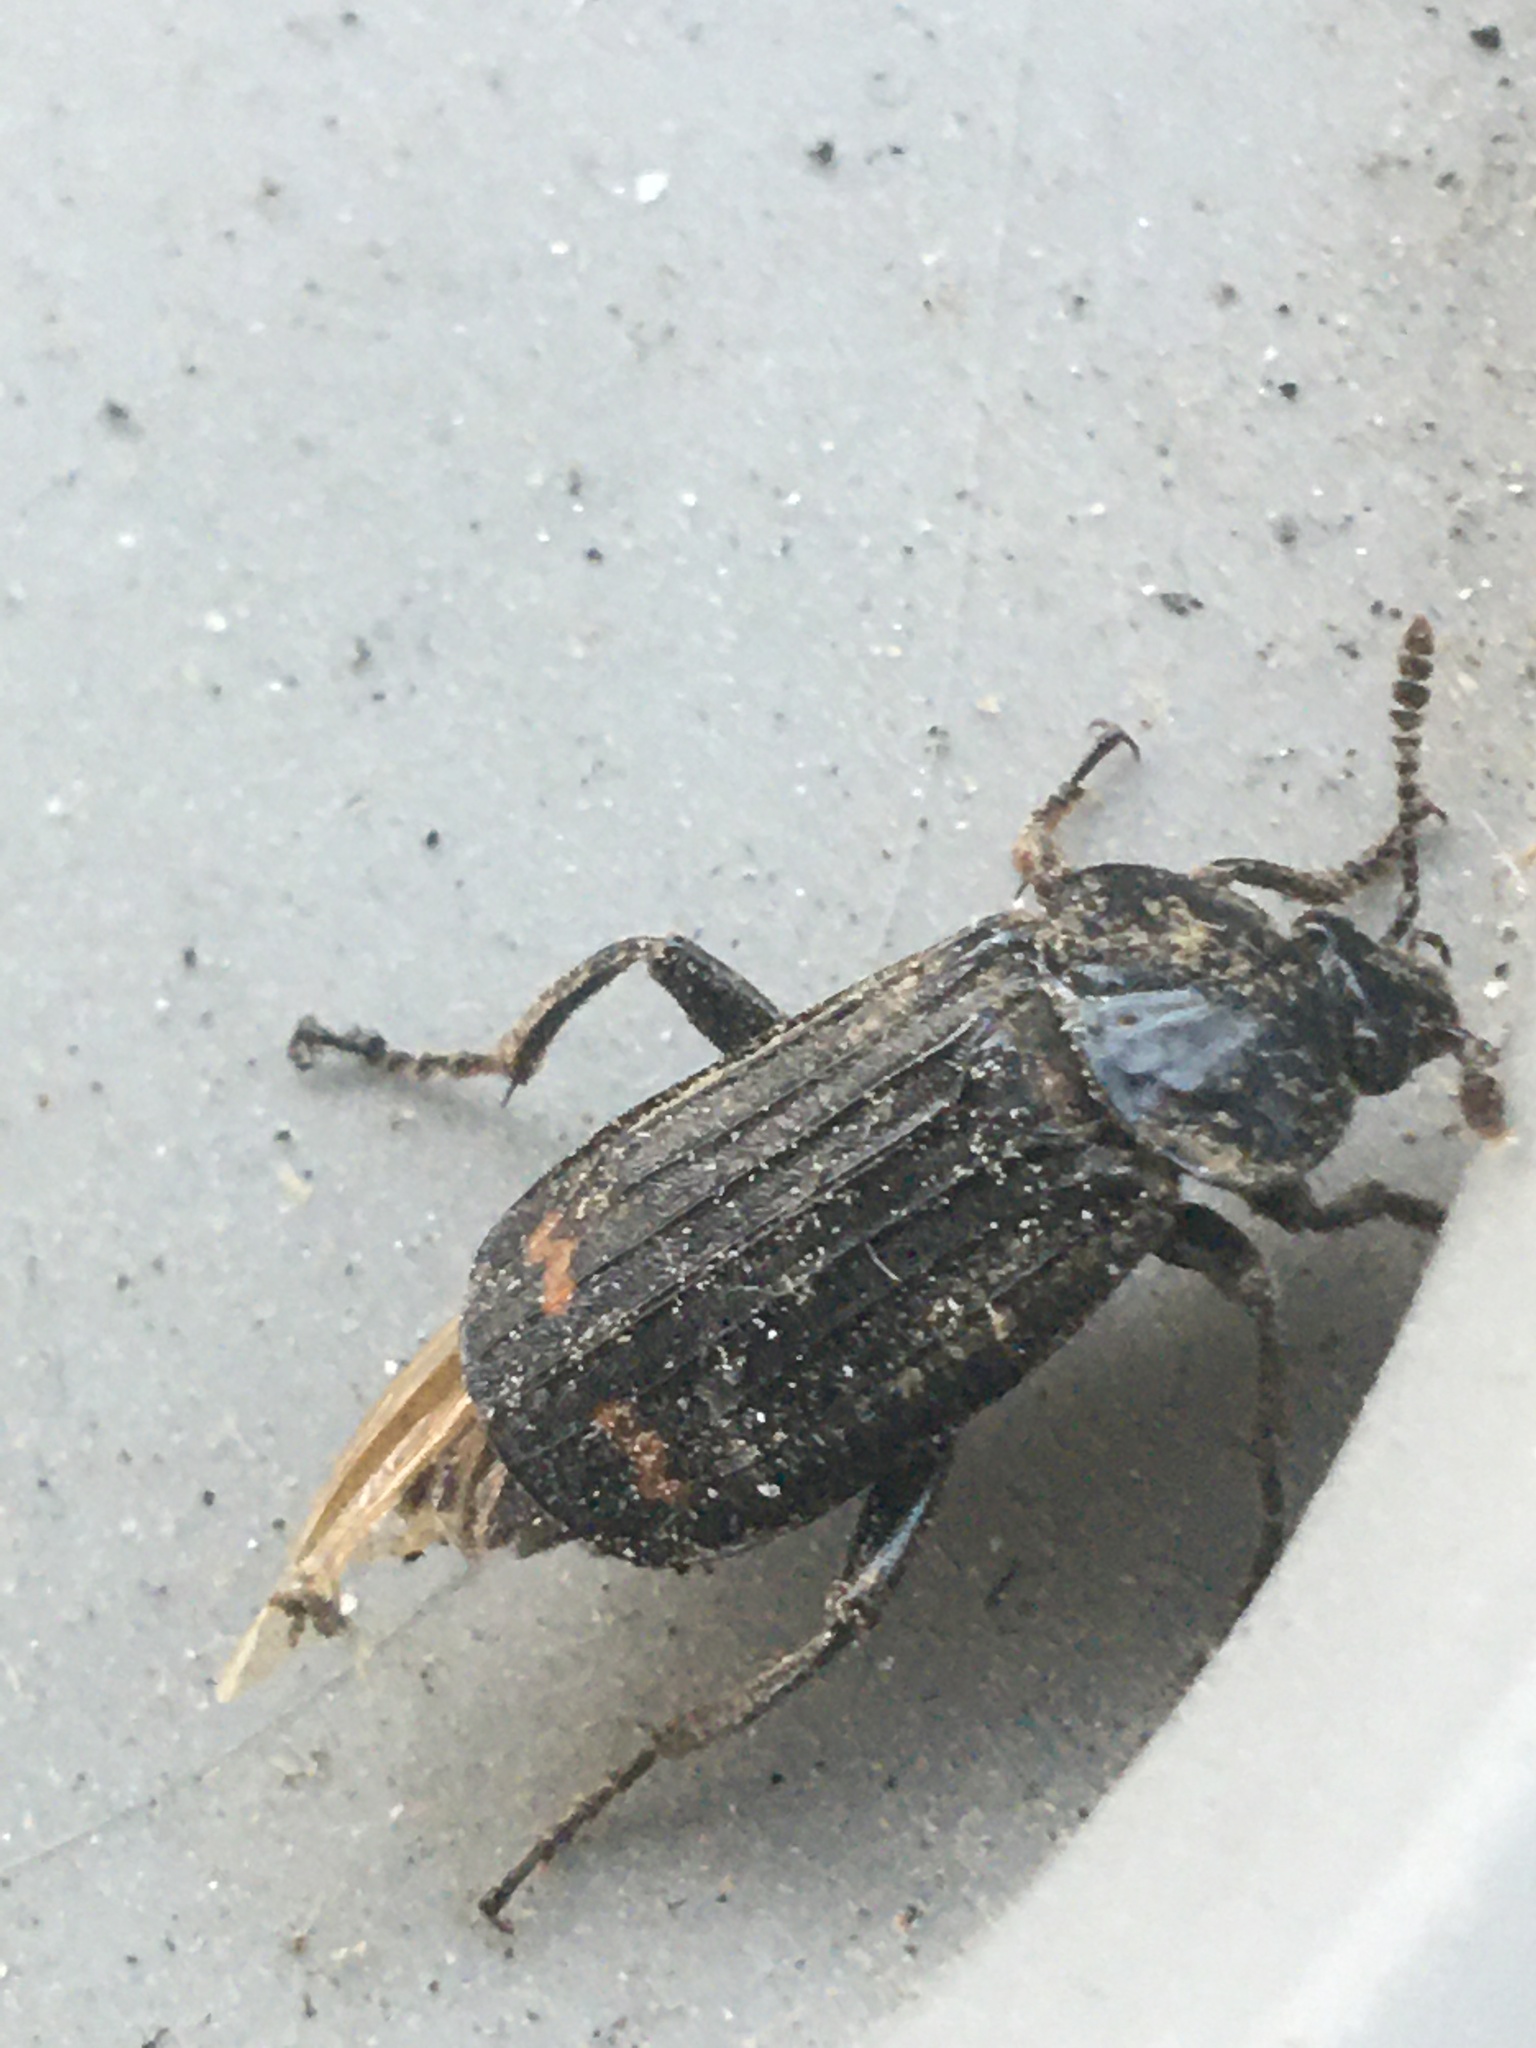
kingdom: Animalia
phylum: Arthropoda
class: Insecta
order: Coleoptera
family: Staphylinidae
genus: Necrodes
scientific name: Necrodes surinamensis
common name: Red-lined carrion beetle
